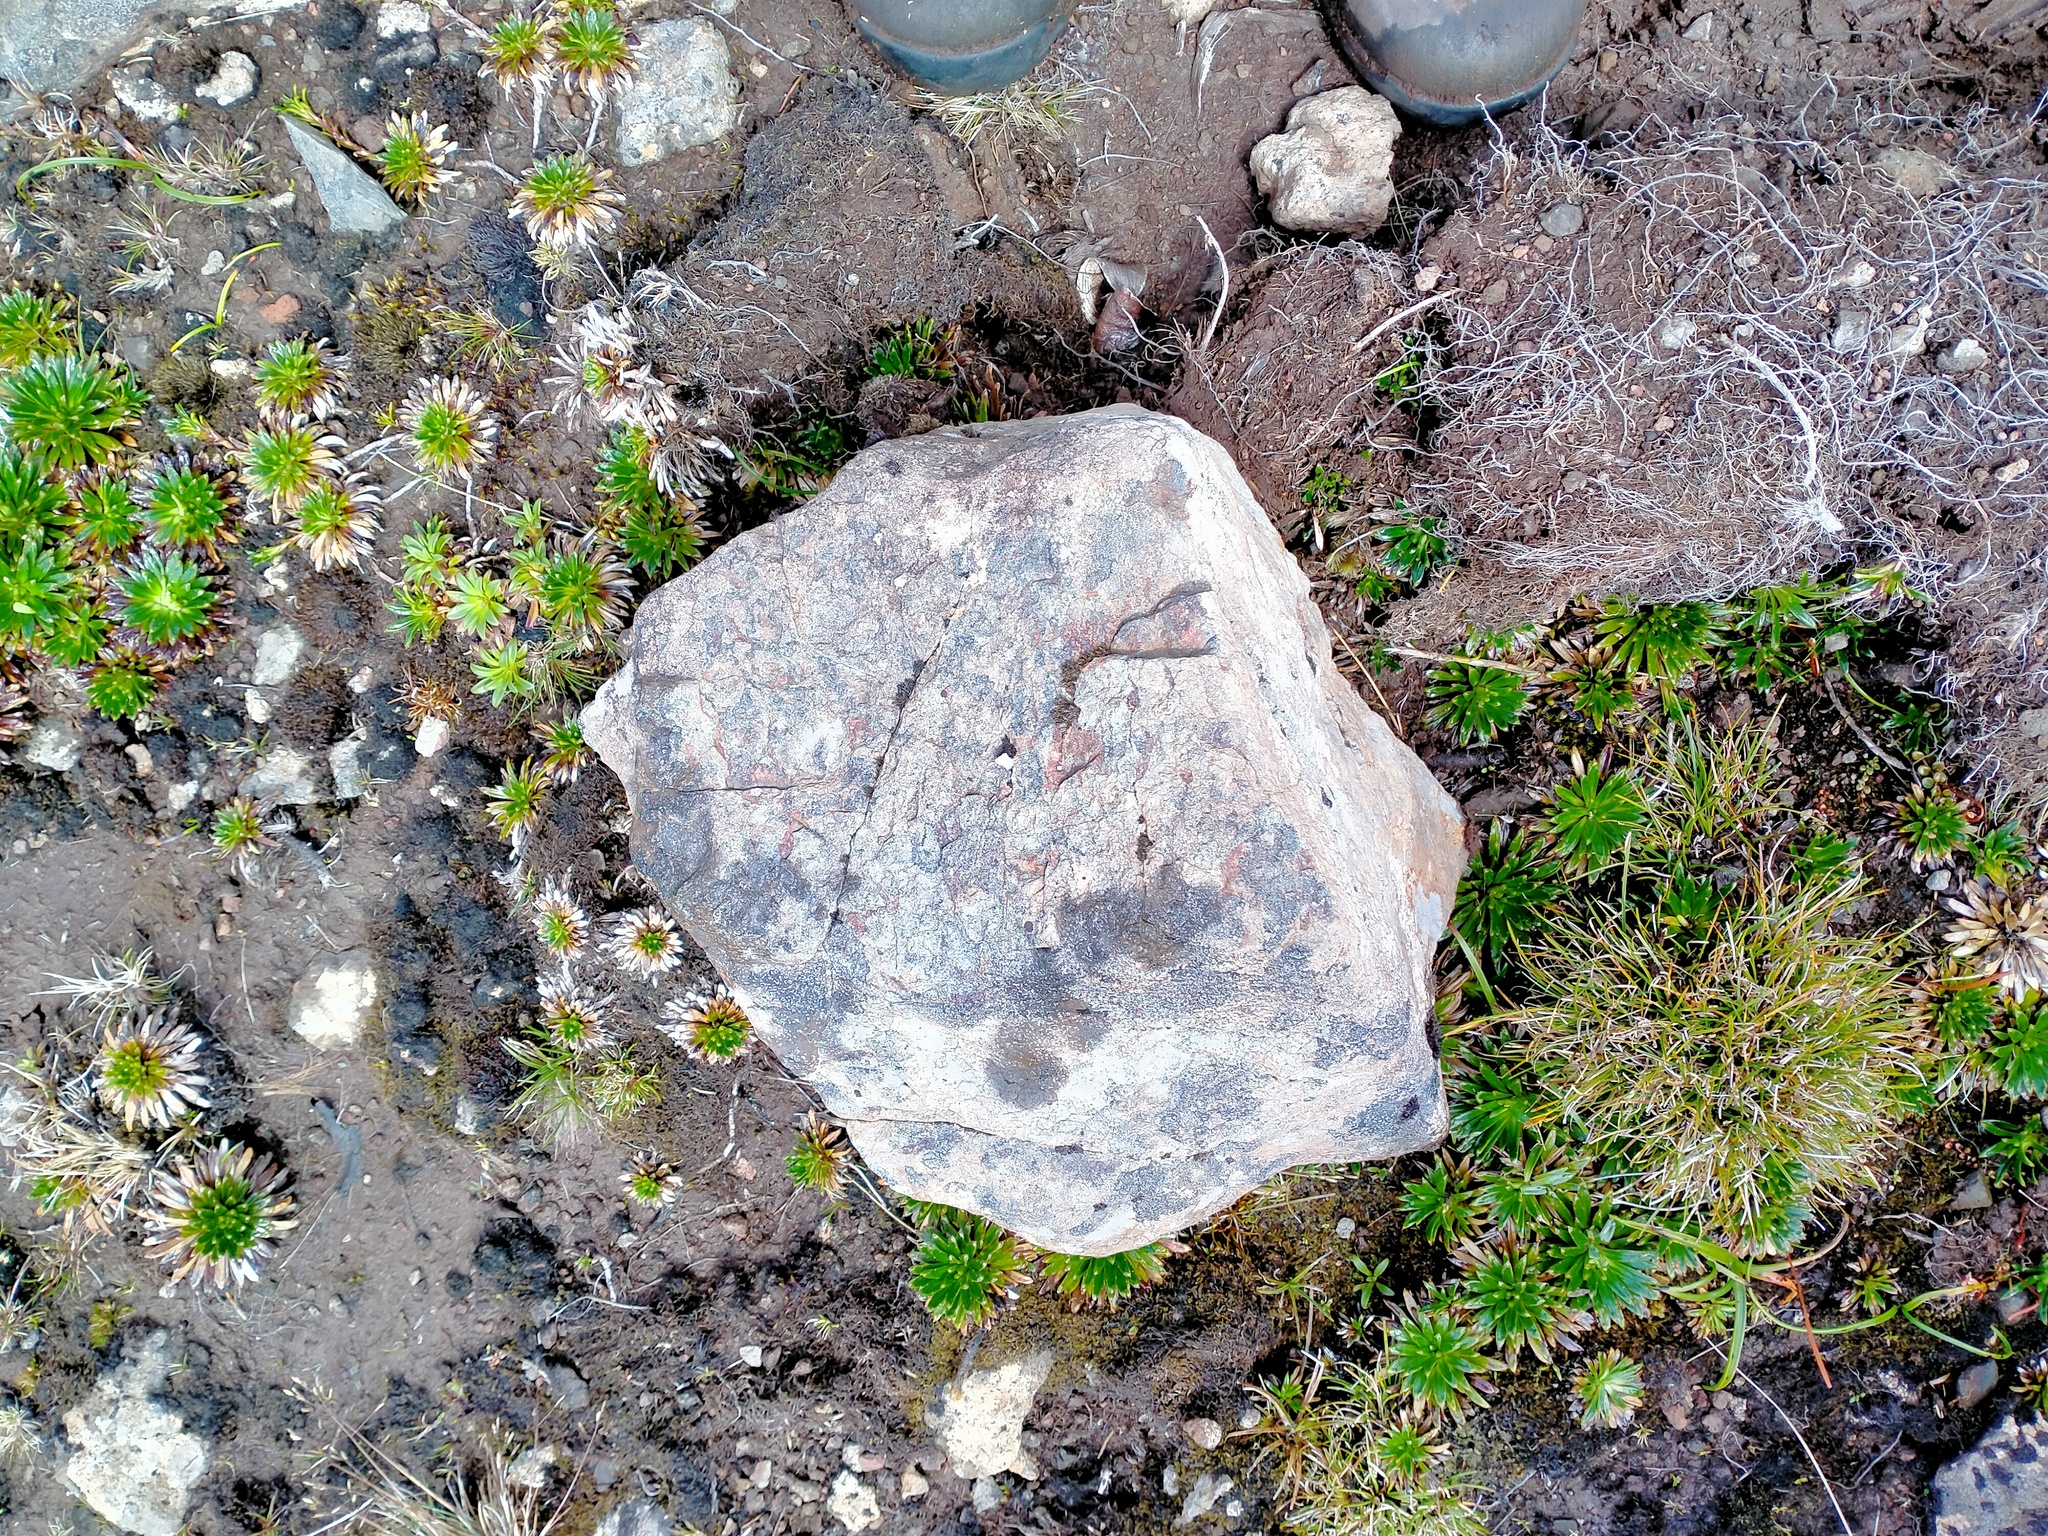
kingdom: Plantae
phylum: Tracheophyta
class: Magnoliopsida
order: Asterales
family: Asteraceae
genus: Damnamenia
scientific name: Damnamenia vernicosa
